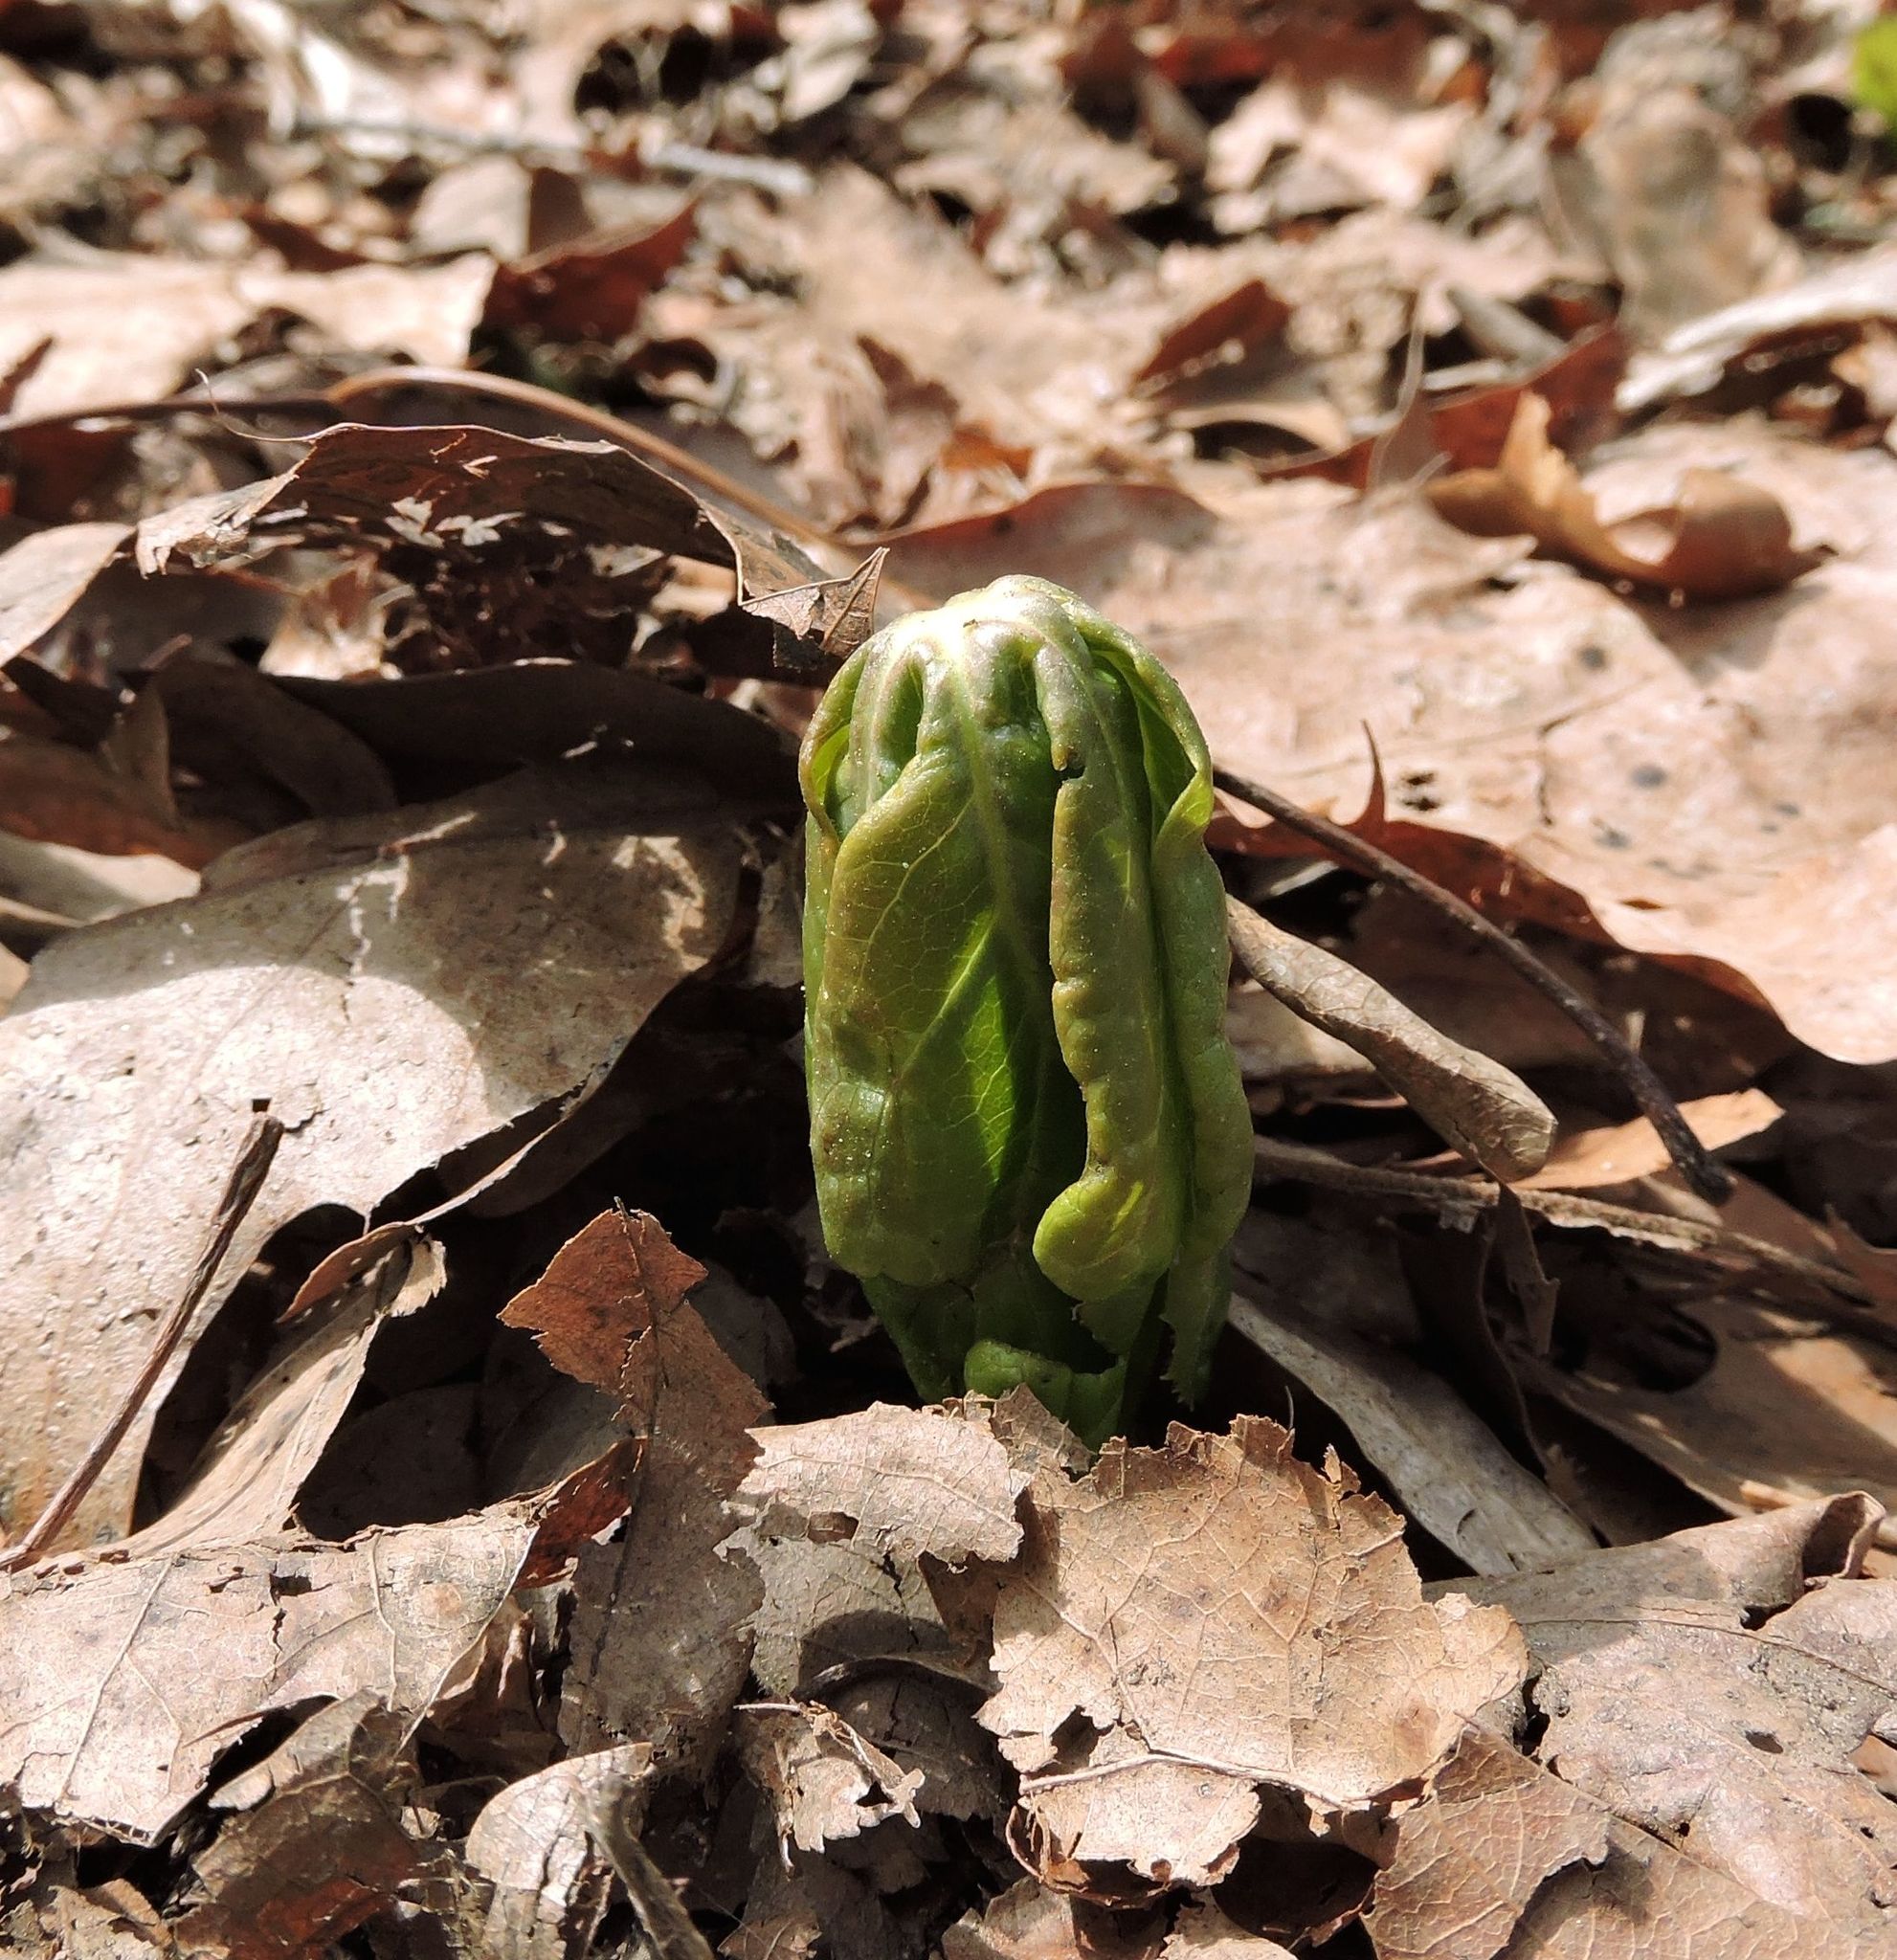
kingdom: Plantae
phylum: Tracheophyta
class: Magnoliopsida
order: Ranunculales
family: Berberidaceae
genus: Podophyllum
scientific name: Podophyllum peltatum
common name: Wild mandrake
